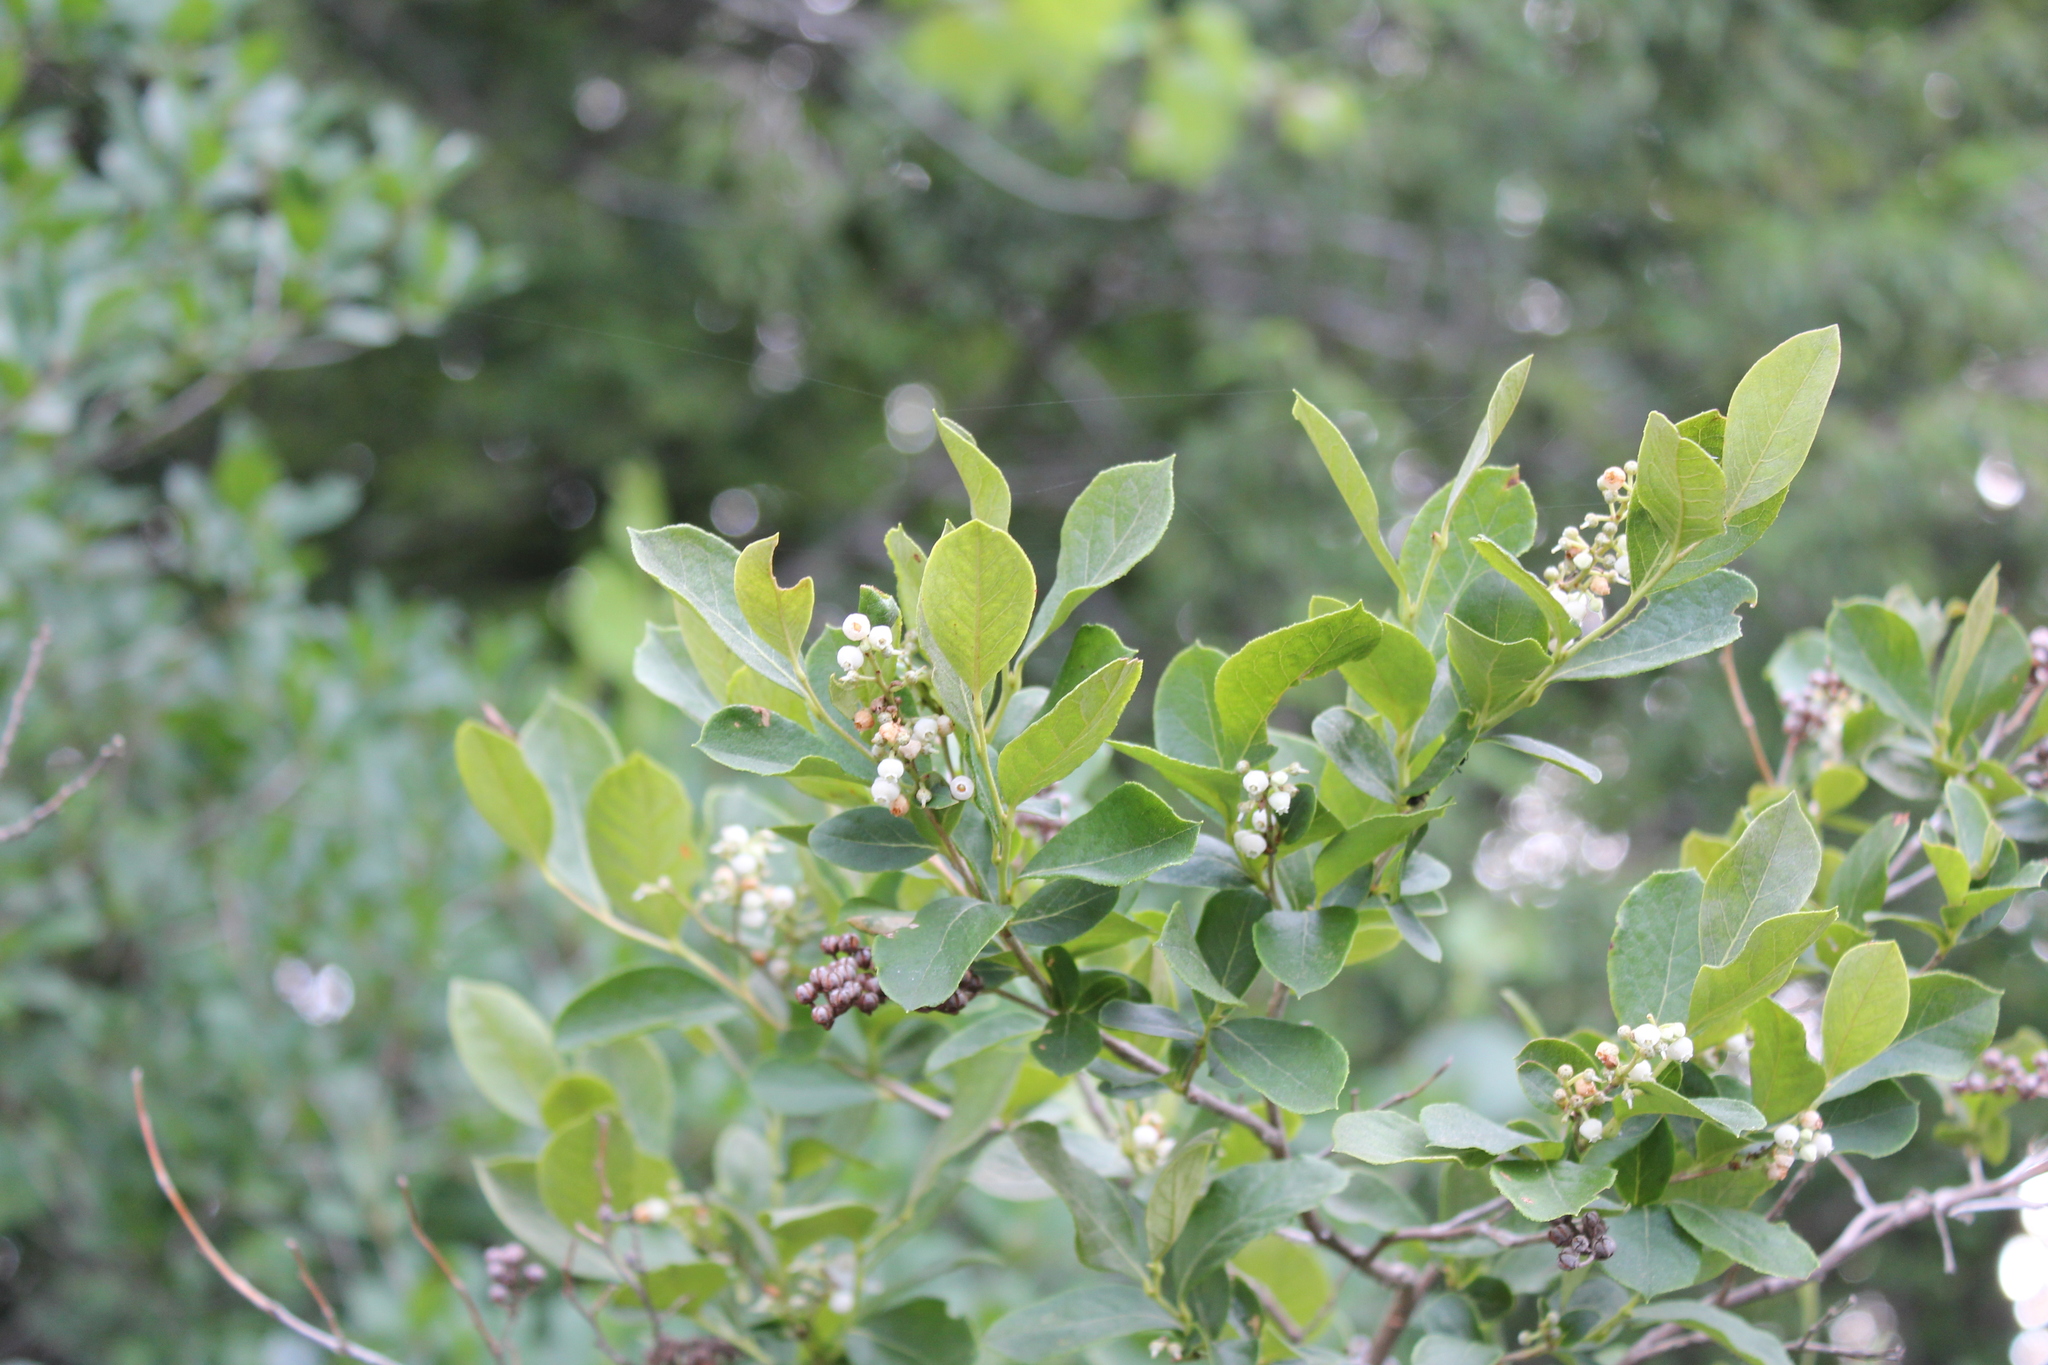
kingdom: Plantae
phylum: Tracheophyta
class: Magnoliopsida
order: Ericales
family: Ericaceae
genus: Lyonia
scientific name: Lyonia ligustrina
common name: Maleberry
